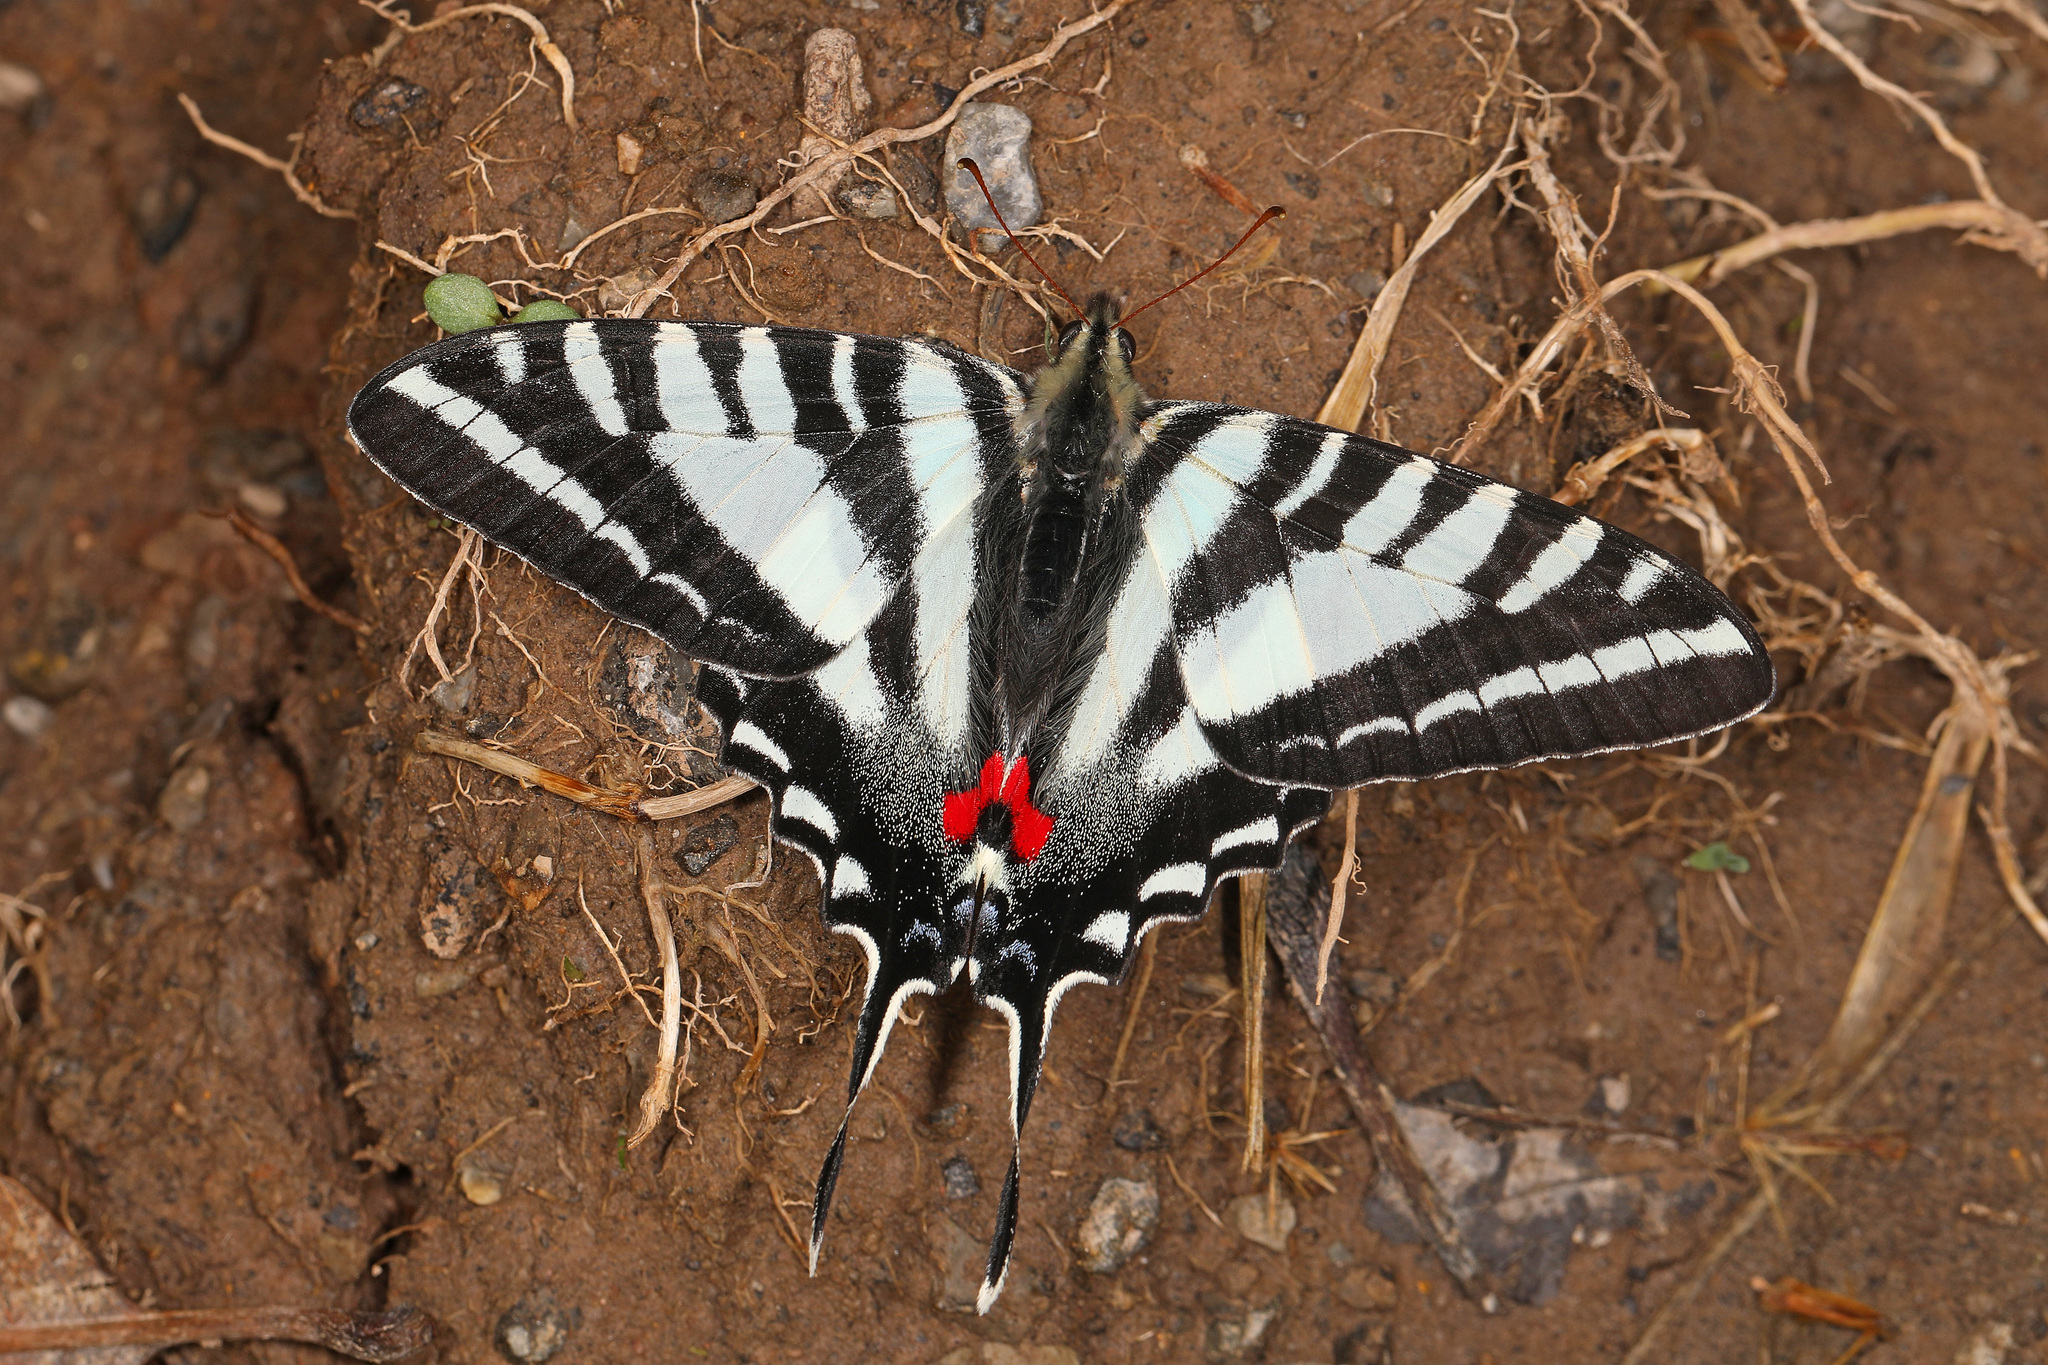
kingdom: Animalia
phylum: Arthropoda
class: Insecta
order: Lepidoptera
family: Papilionidae
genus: Protographium
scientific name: Protographium marcellus
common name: Zebra swallowtail
